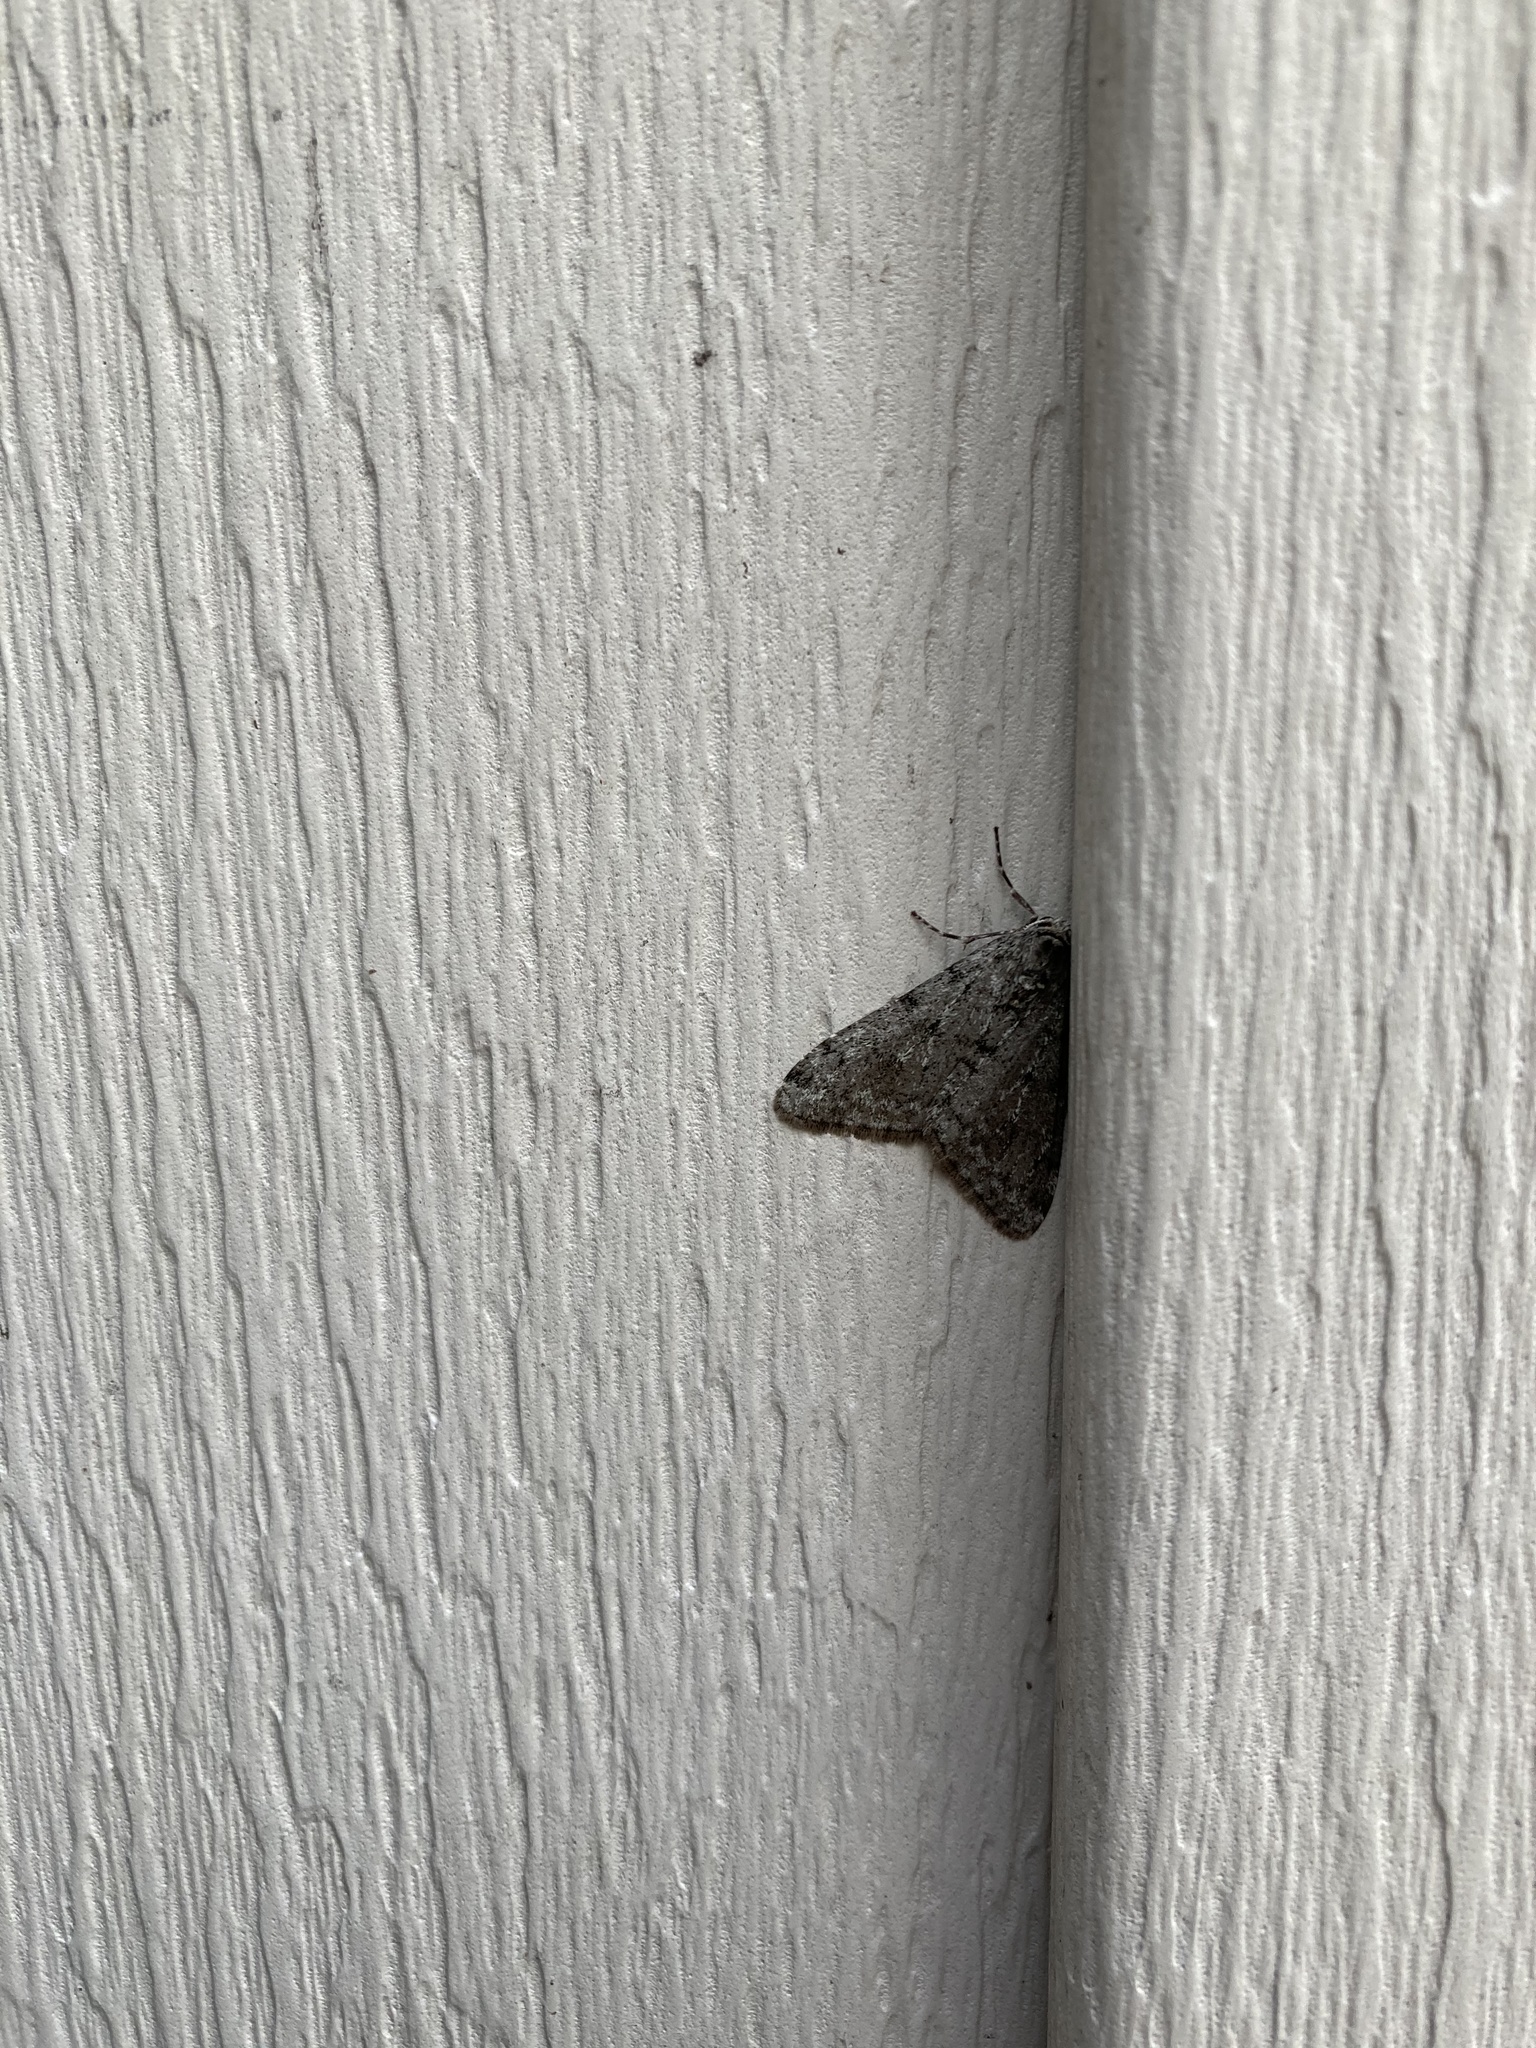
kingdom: Animalia
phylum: Arthropoda
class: Insecta
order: Lepidoptera
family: Geometridae
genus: Phigalia
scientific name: Phigalia strigataria
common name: Small phigalia
